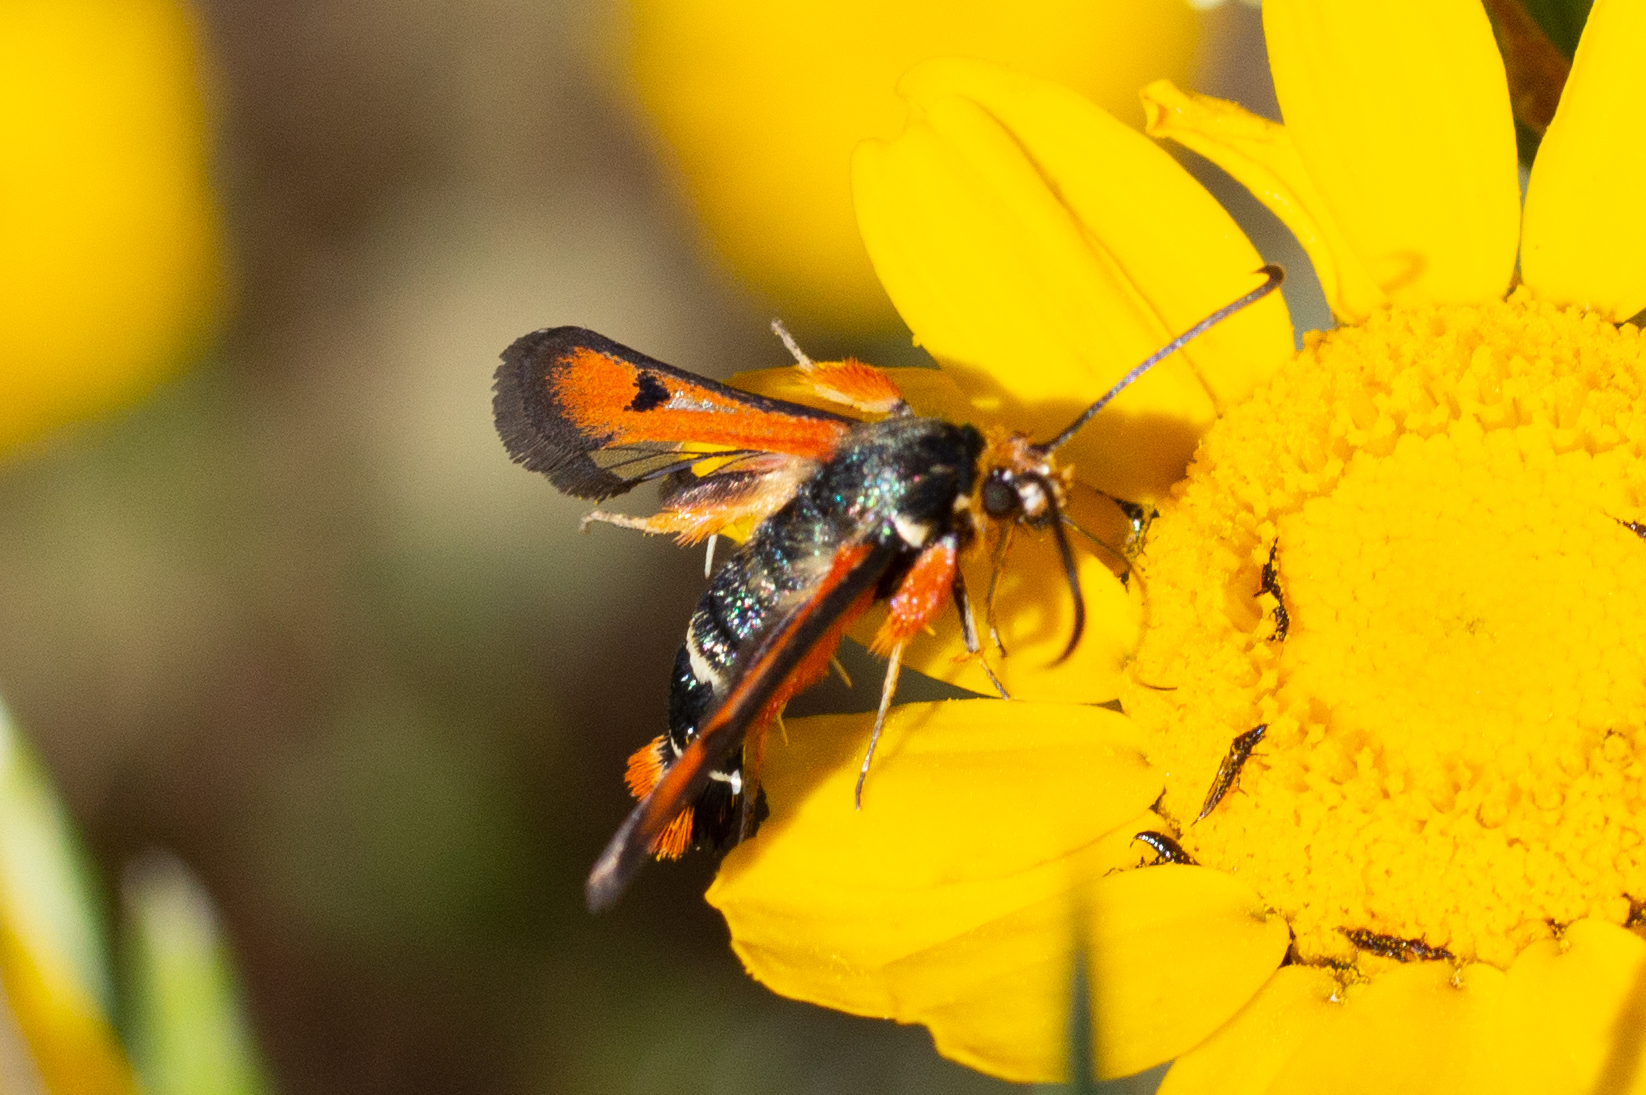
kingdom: Animalia
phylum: Arthropoda
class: Insecta
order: Lepidoptera
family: Sesiidae
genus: Pyropteron
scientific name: Pyropteron chrysidiforme
